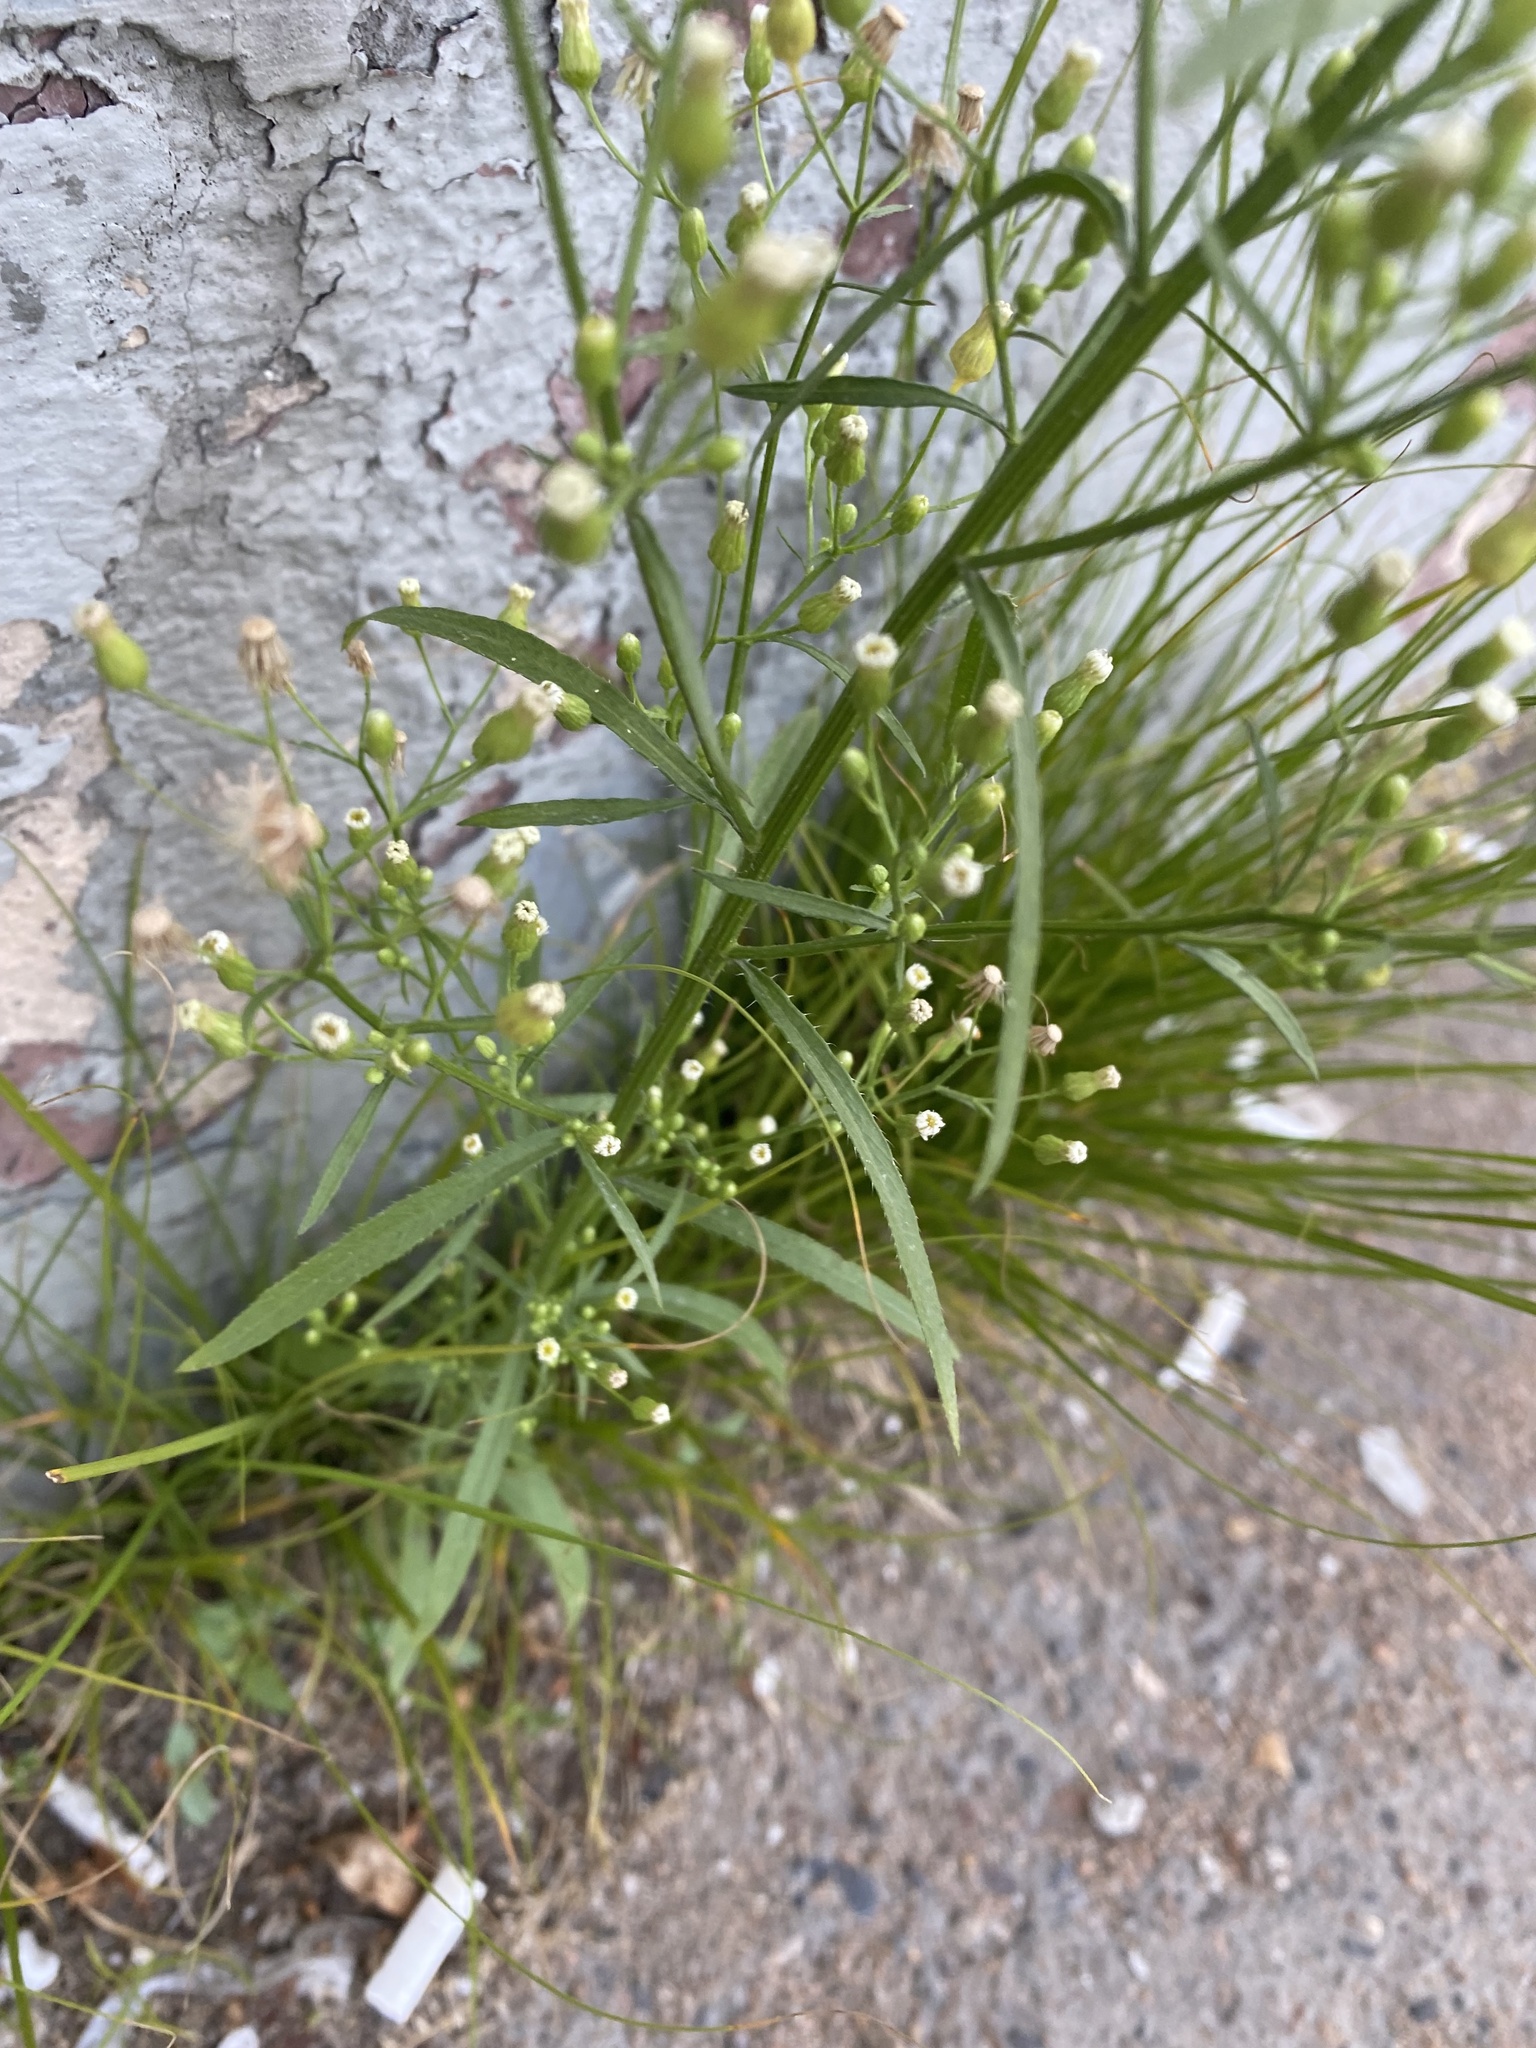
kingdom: Plantae
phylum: Tracheophyta
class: Magnoliopsida
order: Asterales
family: Asteraceae
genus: Erigeron
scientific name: Erigeron canadensis
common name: Canadian fleabane
